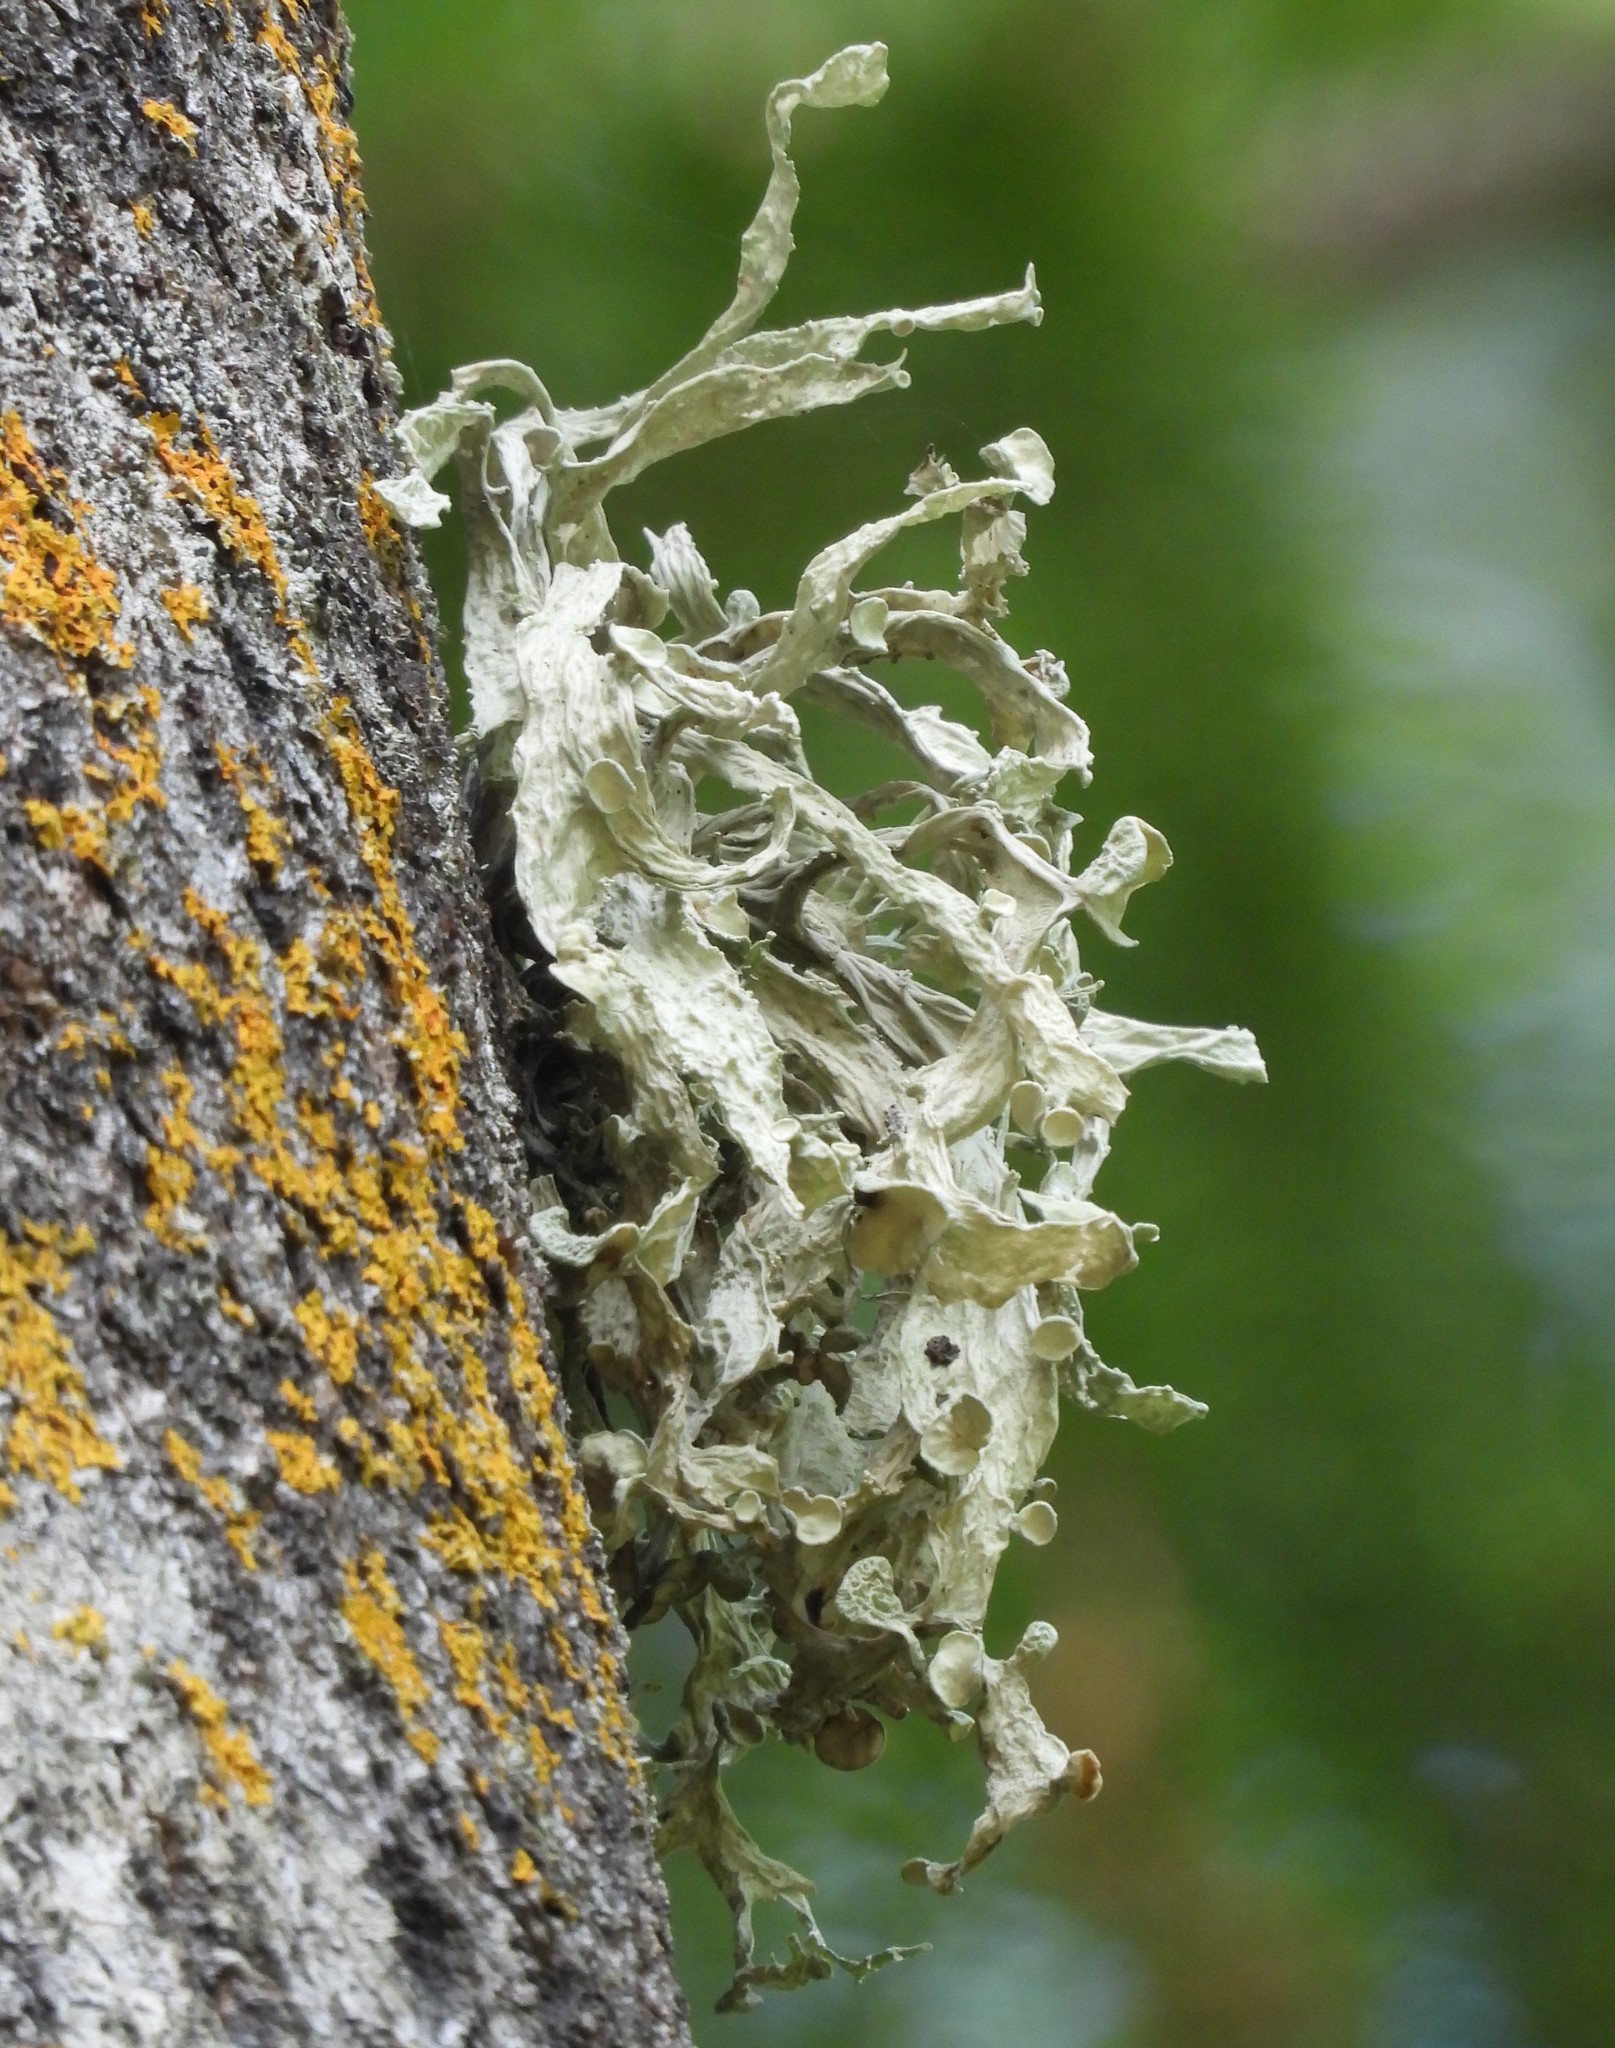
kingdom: Fungi
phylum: Ascomycota
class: Lecanoromycetes
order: Lecanorales
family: Ramalinaceae
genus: Ramalina
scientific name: Ramalina fraxinea
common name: Cartilage lichen
